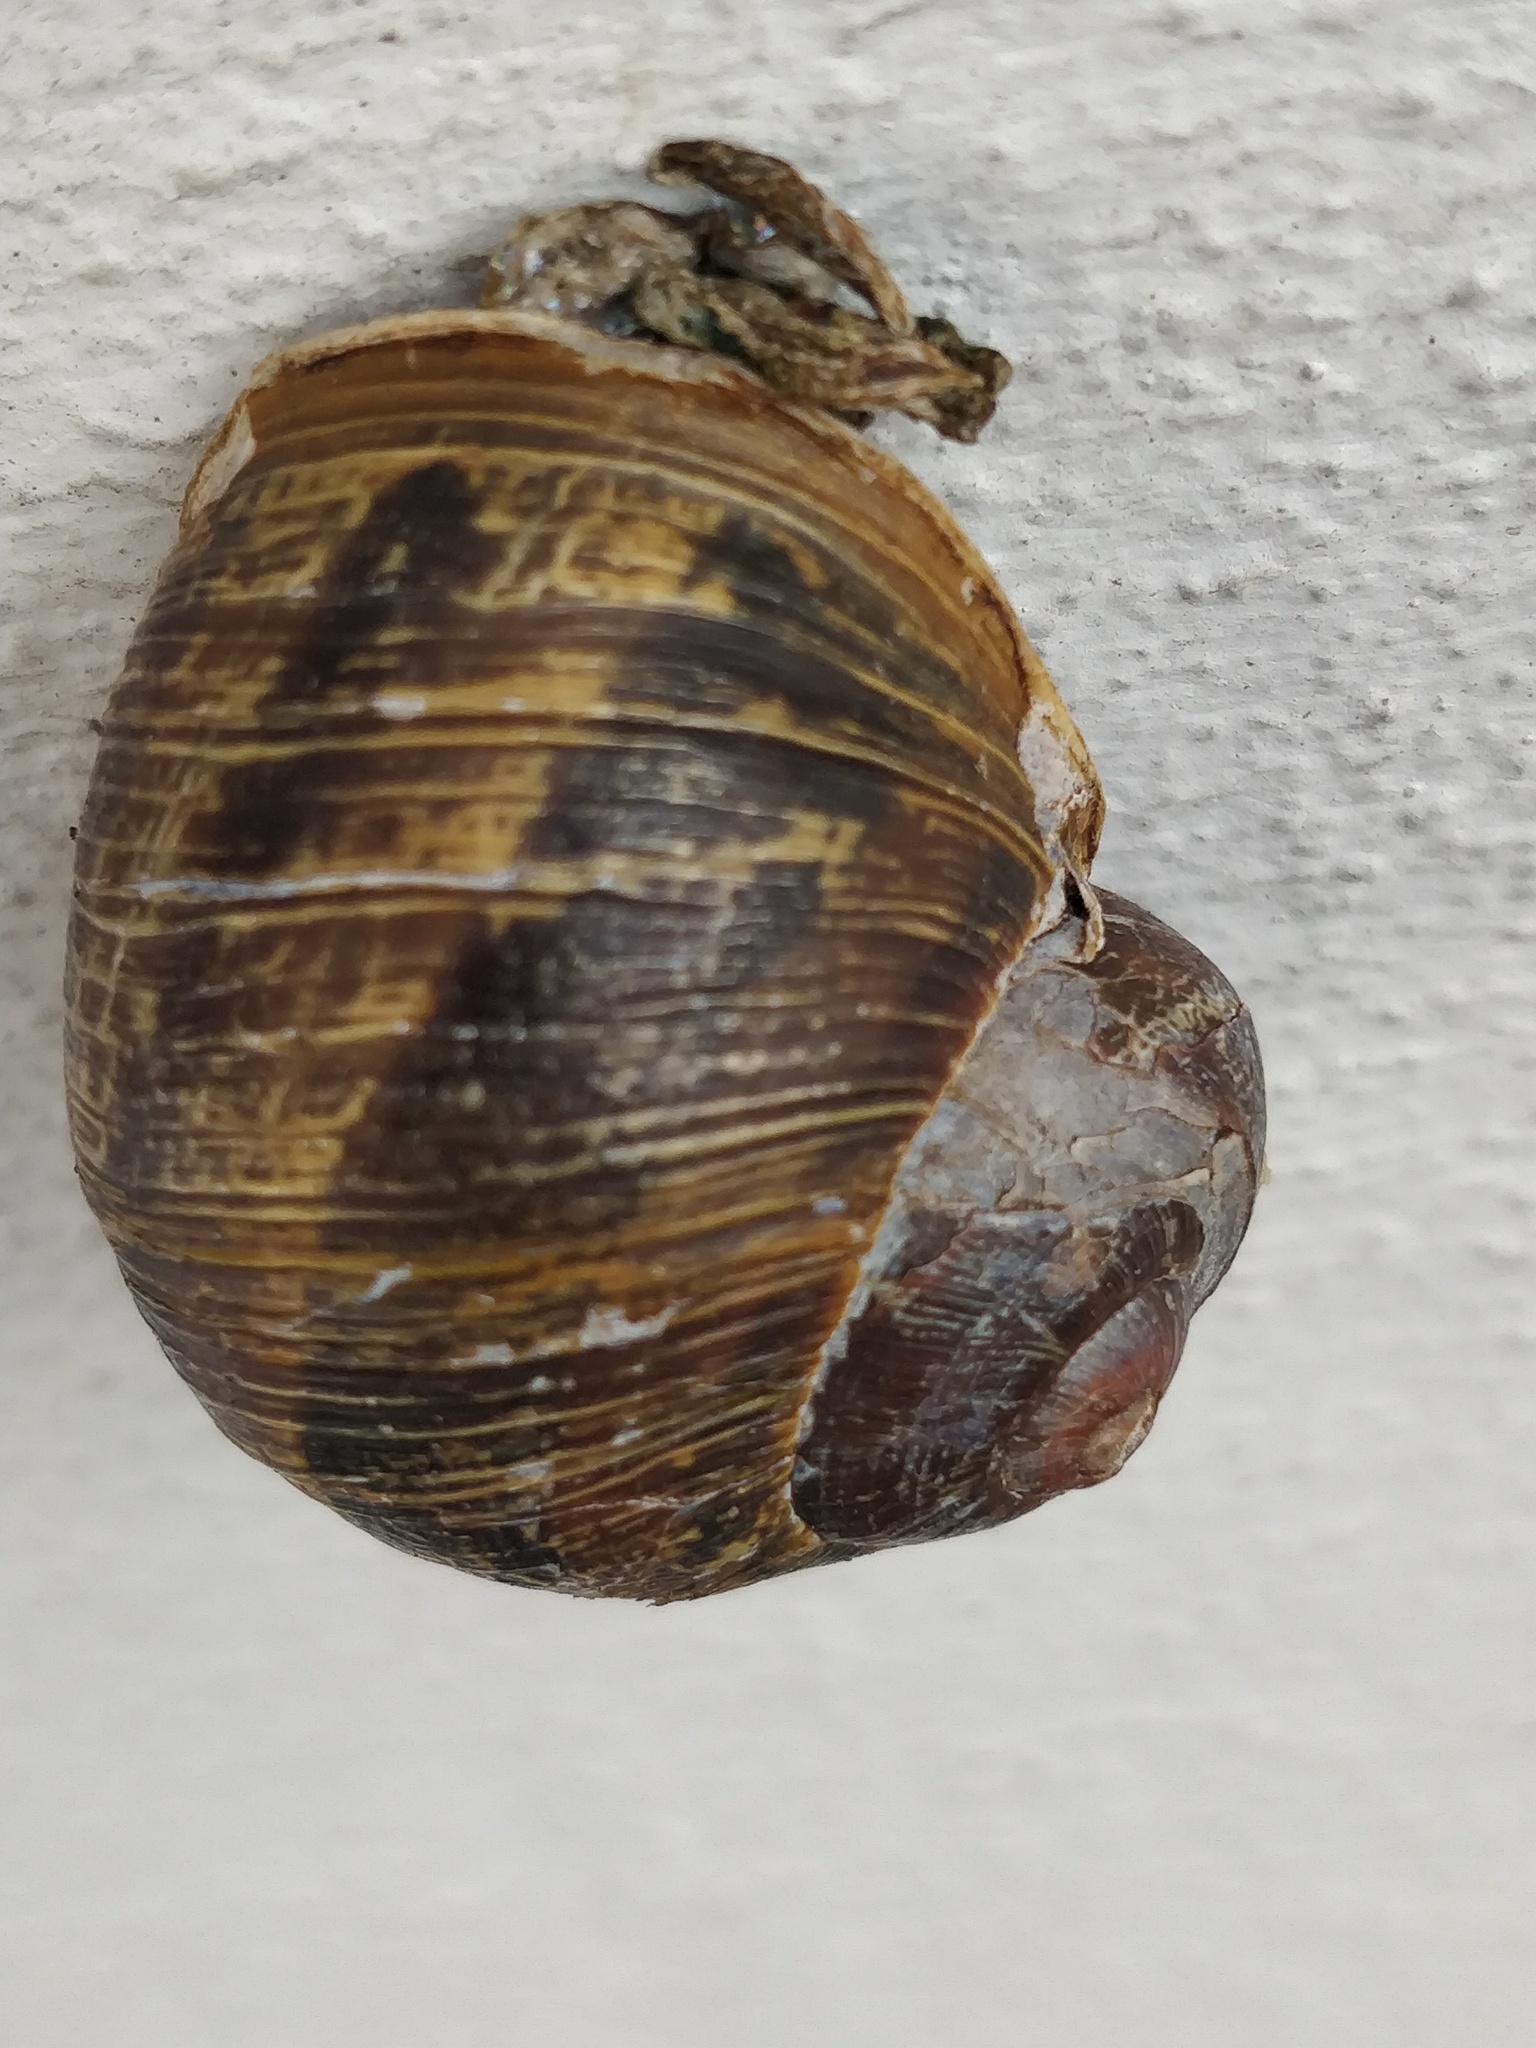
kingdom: Animalia
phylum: Mollusca
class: Gastropoda
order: Stylommatophora
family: Helicidae
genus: Cornu
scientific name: Cornu aspersum
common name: Brown garden snail
